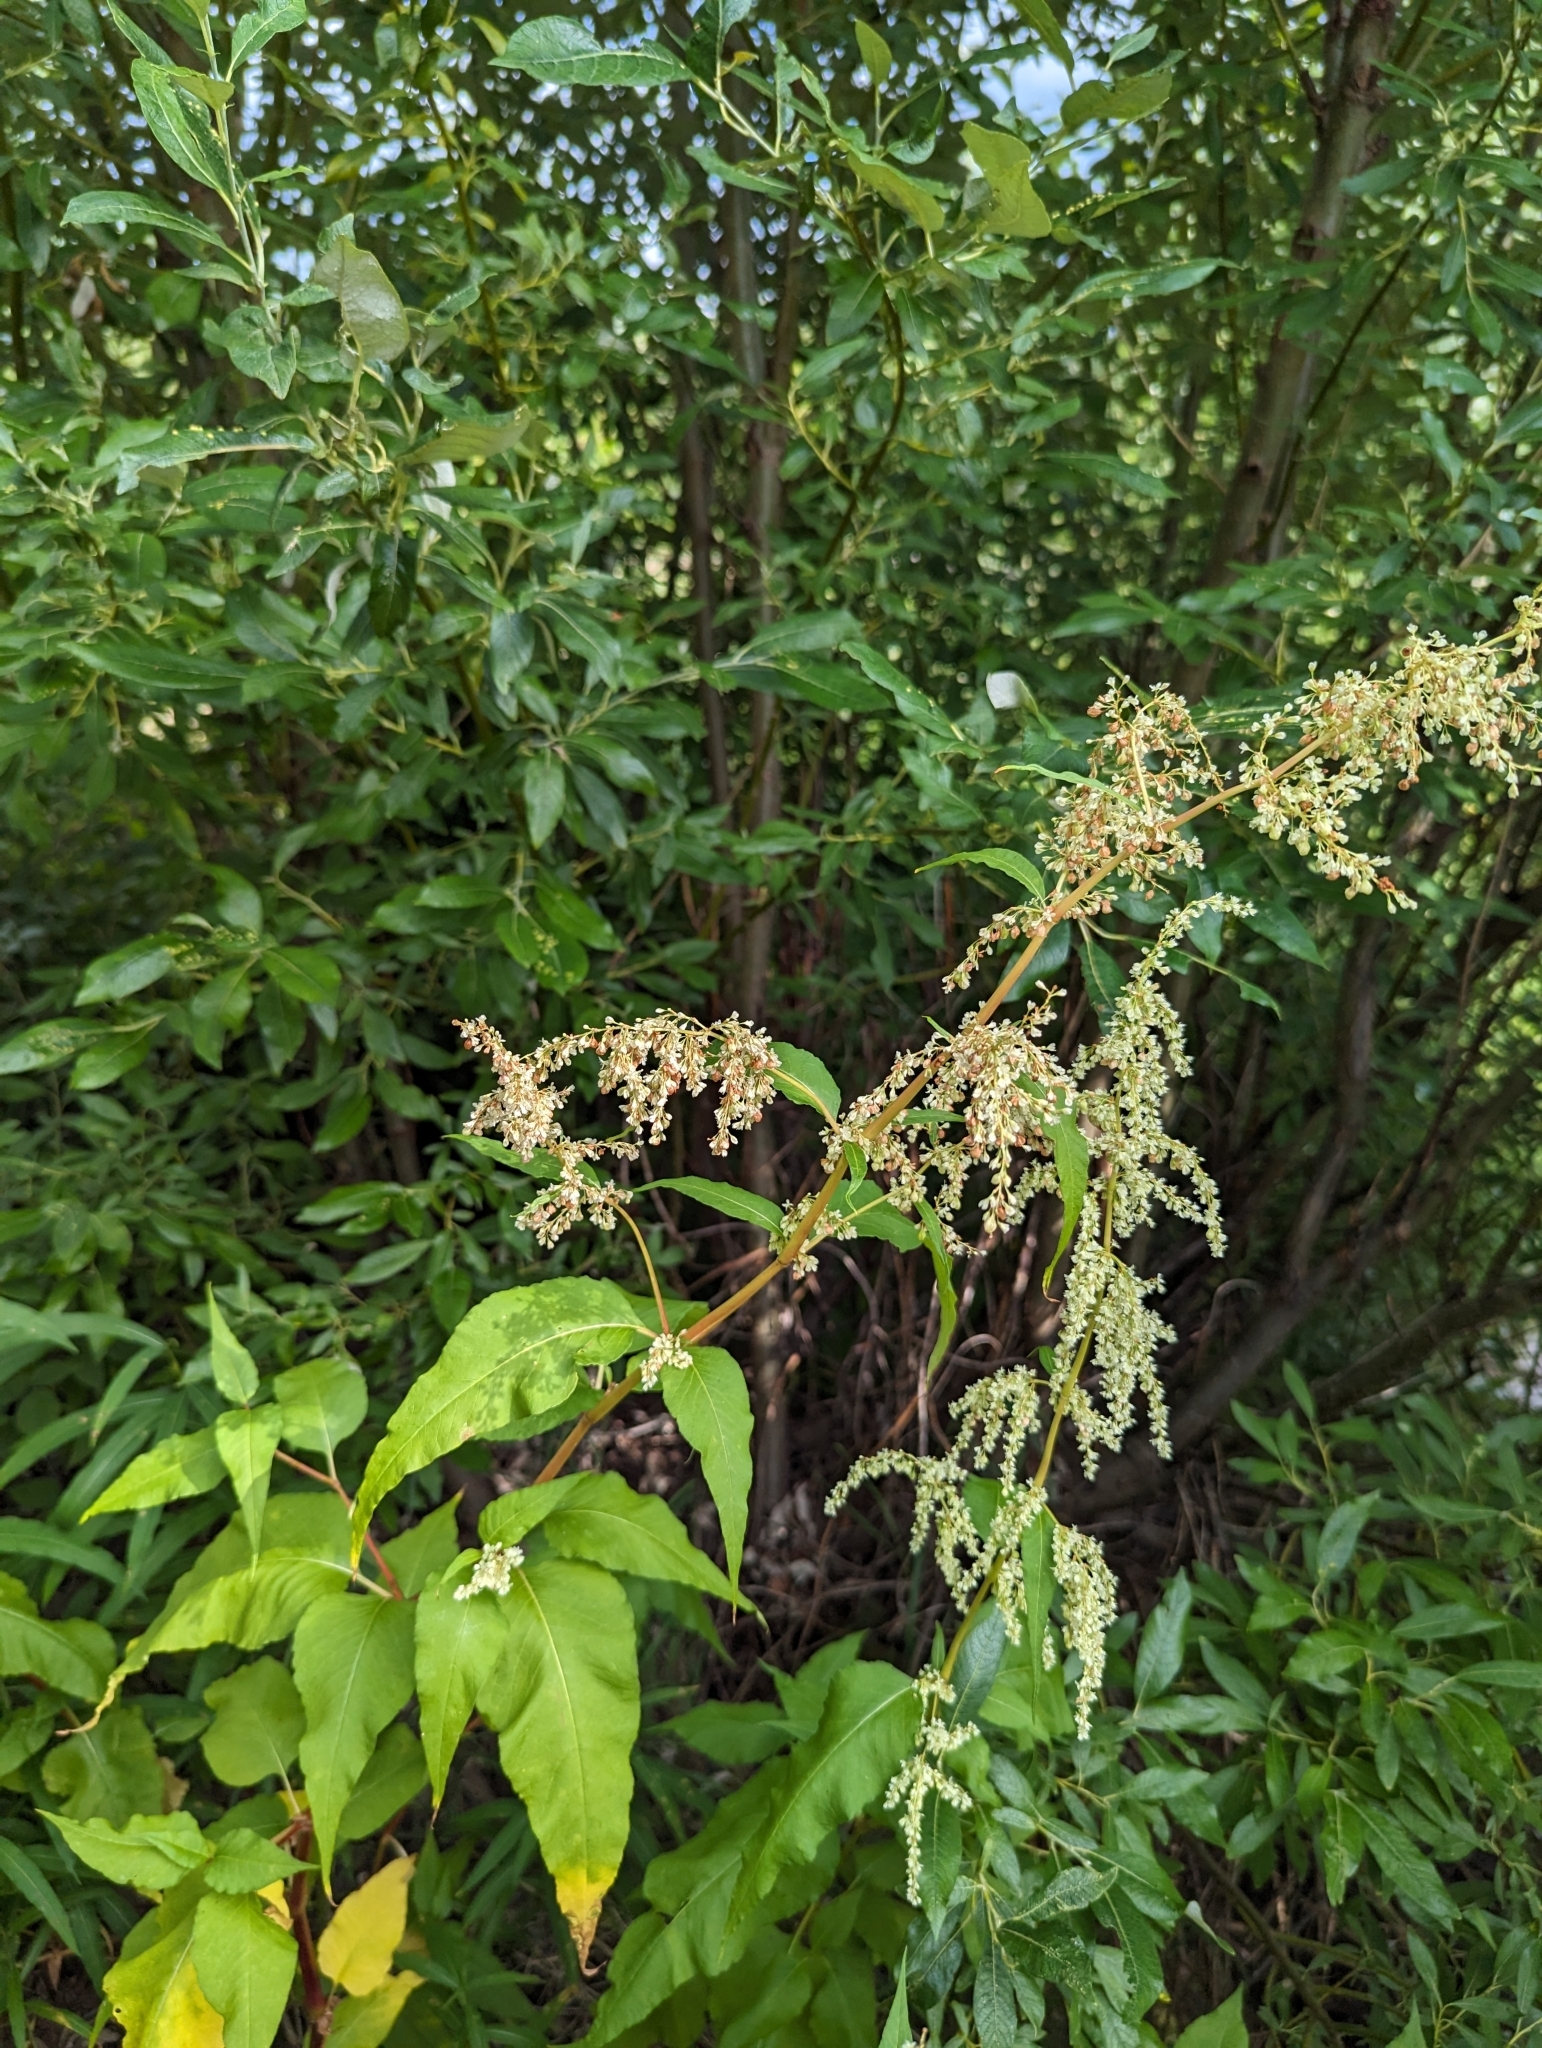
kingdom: Plantae
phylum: Tracheophyta
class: Magnoliopsida
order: Caryophyllales
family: Polygonaceae
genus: Koenigia
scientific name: Koenigia lapathifolia
